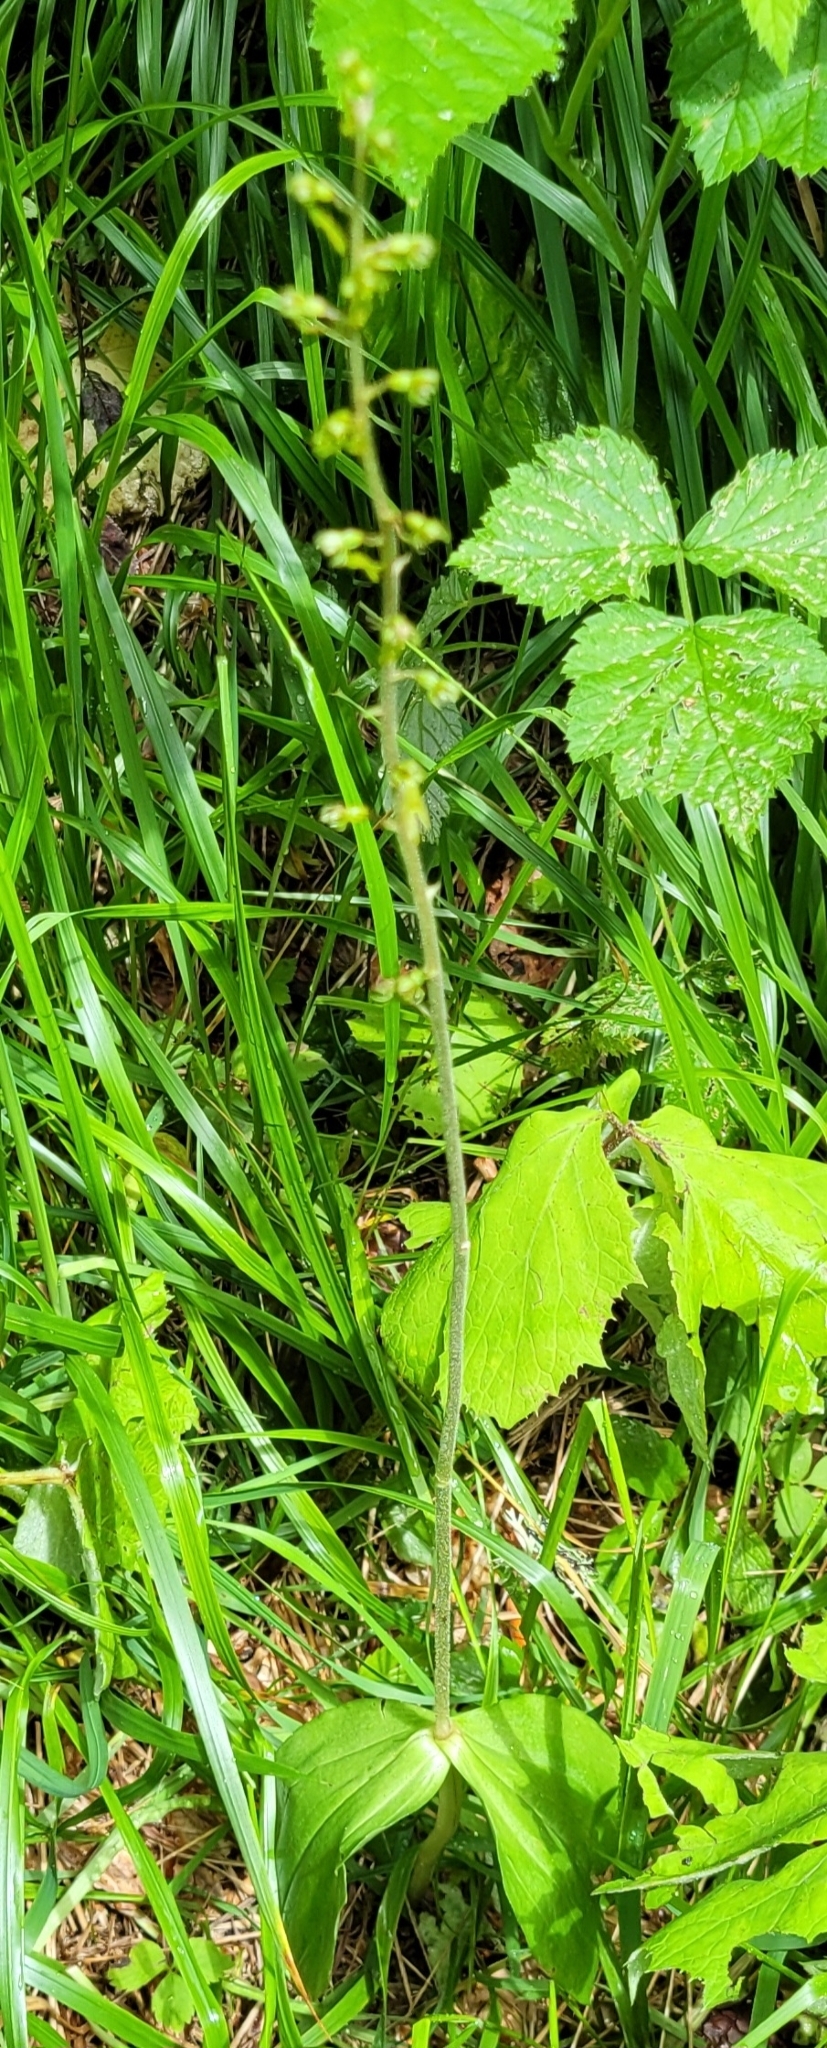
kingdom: Plantae
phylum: Tracheophyta
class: Liliopsida
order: Asparagales
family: Orchidaceae
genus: Neottia
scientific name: Neottia ovata
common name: Common twayblade
